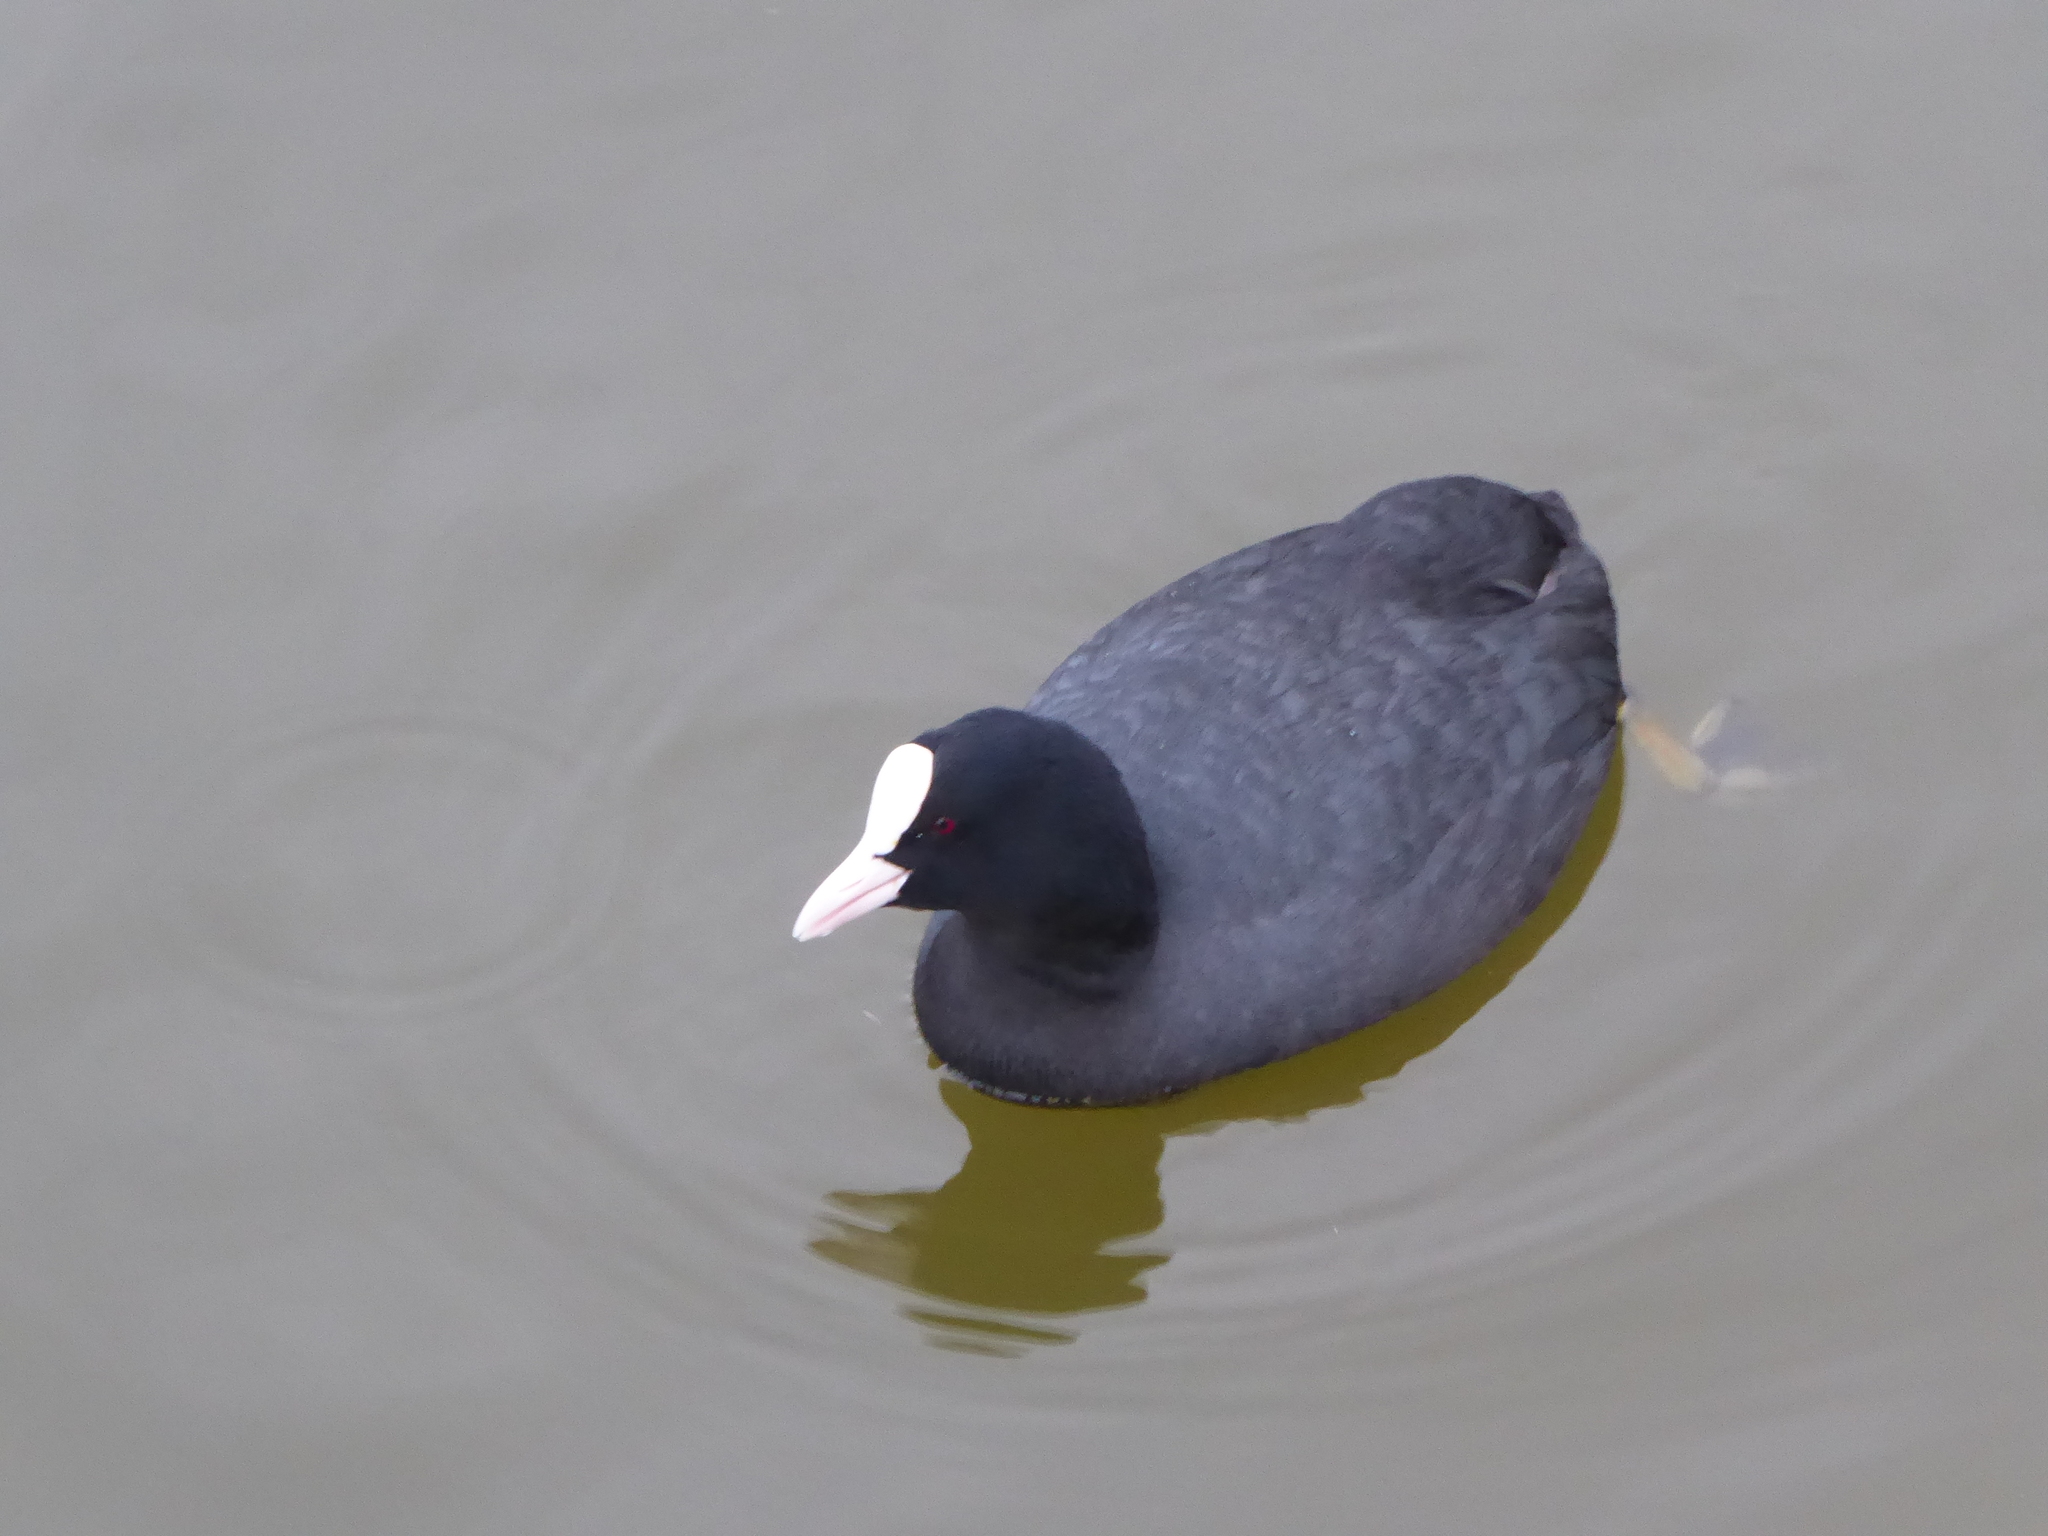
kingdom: Animalia
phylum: Chordata
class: Aves
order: Gruiformes
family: Rallidae
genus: Fulica
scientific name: Fulica atra
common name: Eurasian coot
